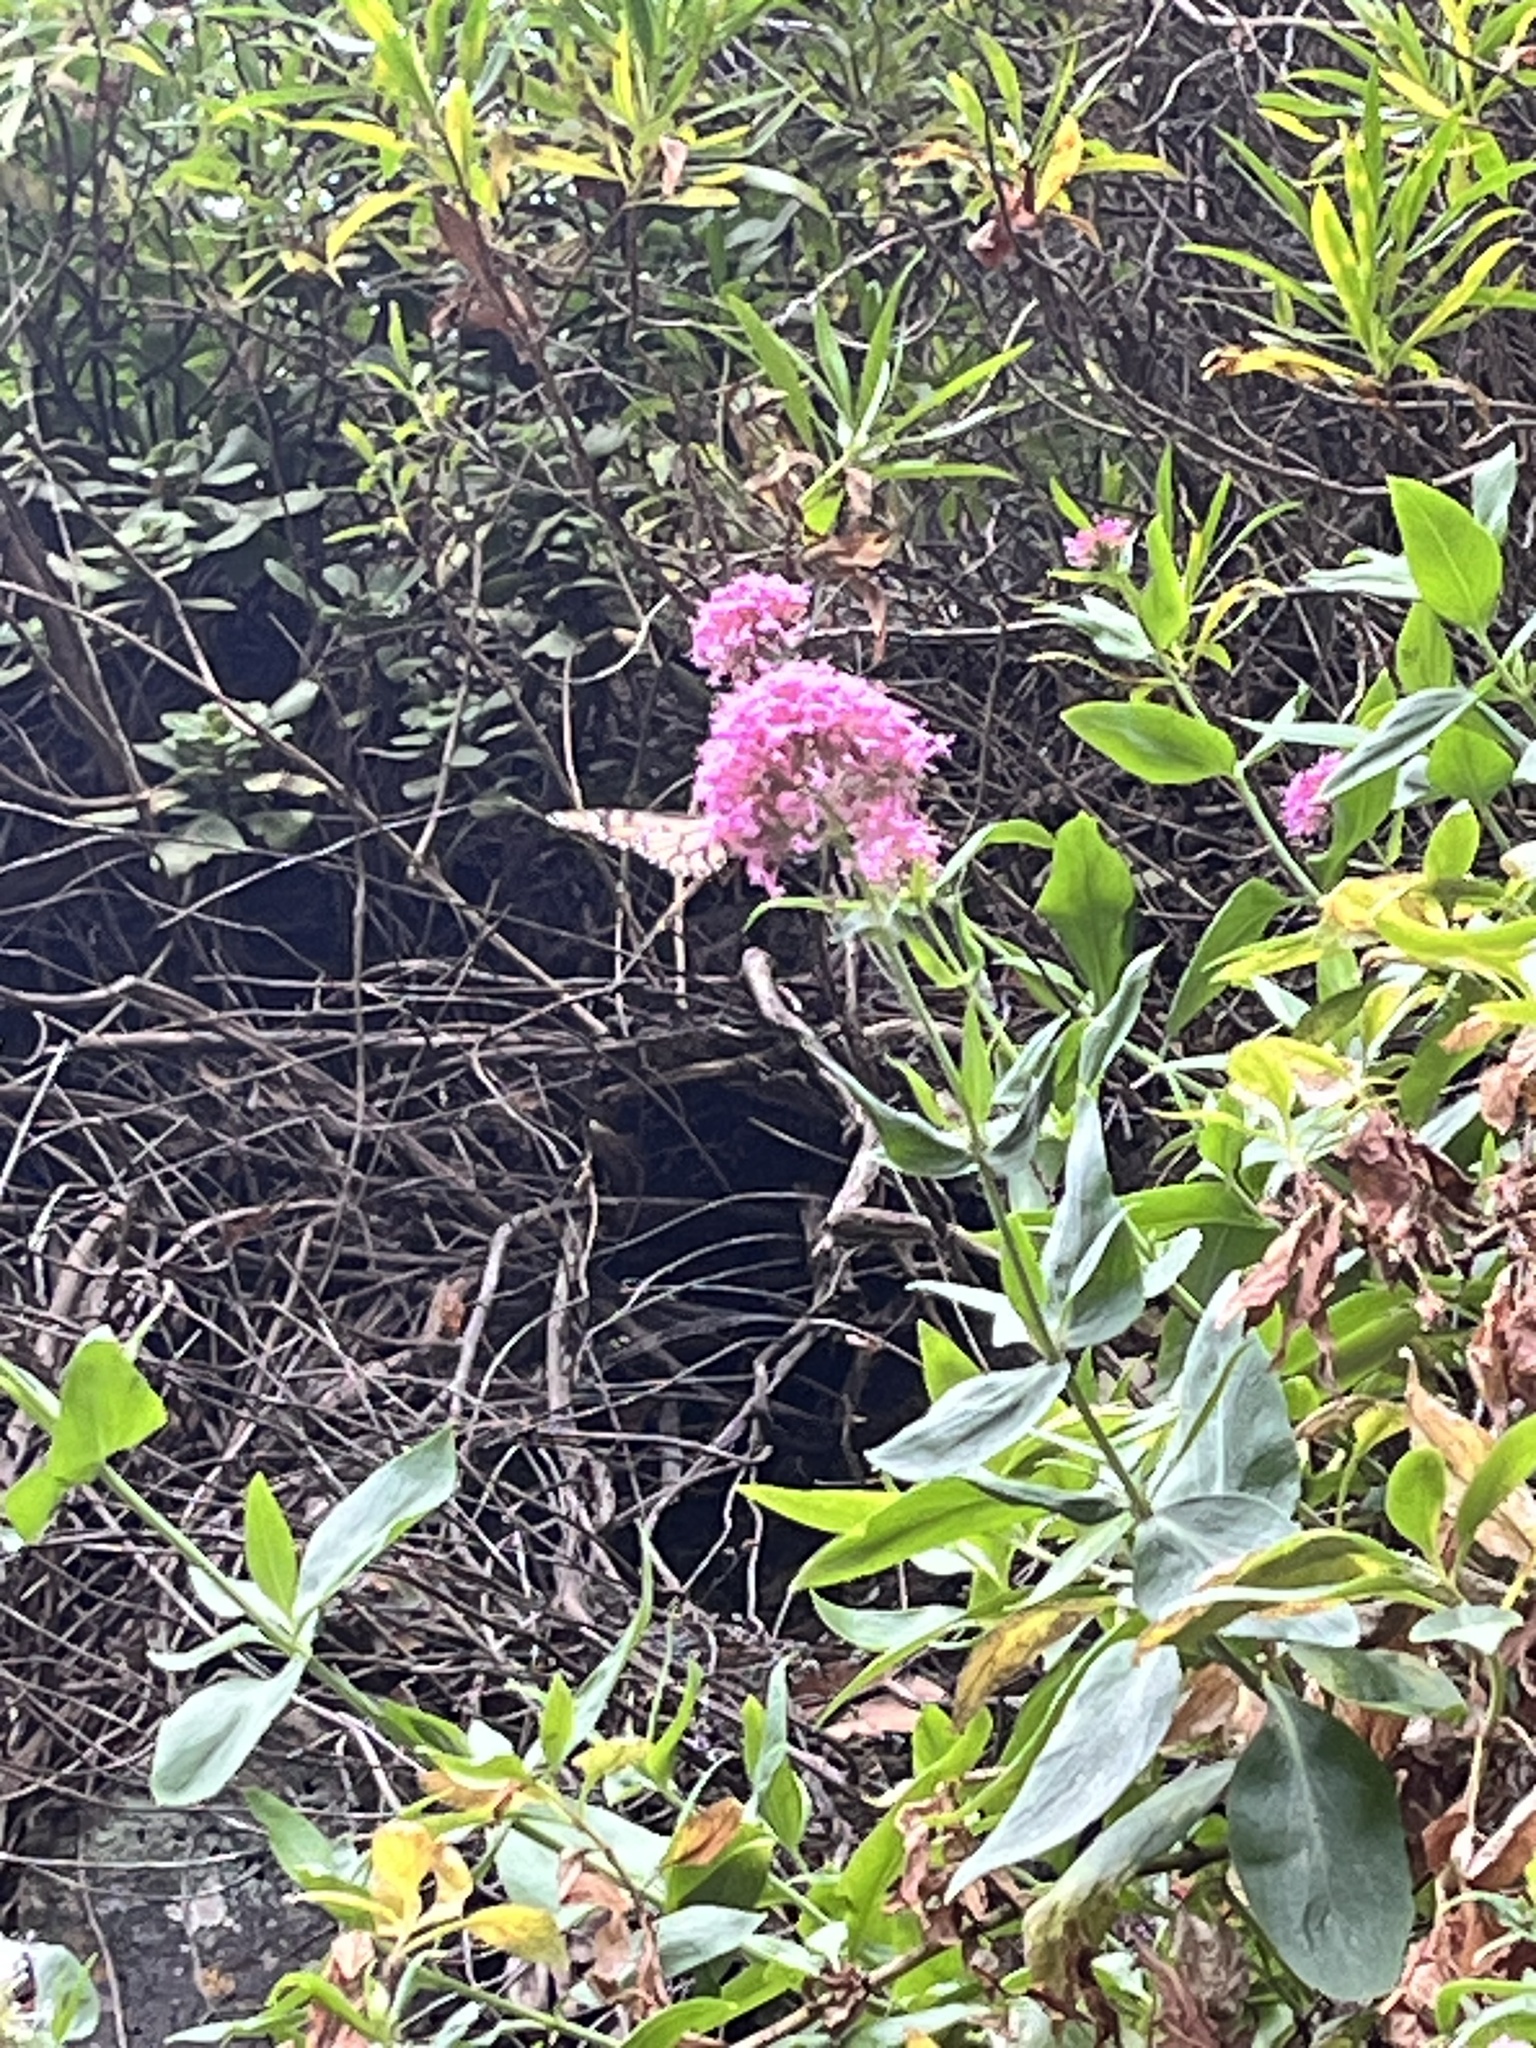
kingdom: Plantae
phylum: Tracheophyta
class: Magnoliopsida
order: Dipsacales
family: Caprifoliaceae
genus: Centranthus
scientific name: Centranthus ruber
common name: Red valerian
